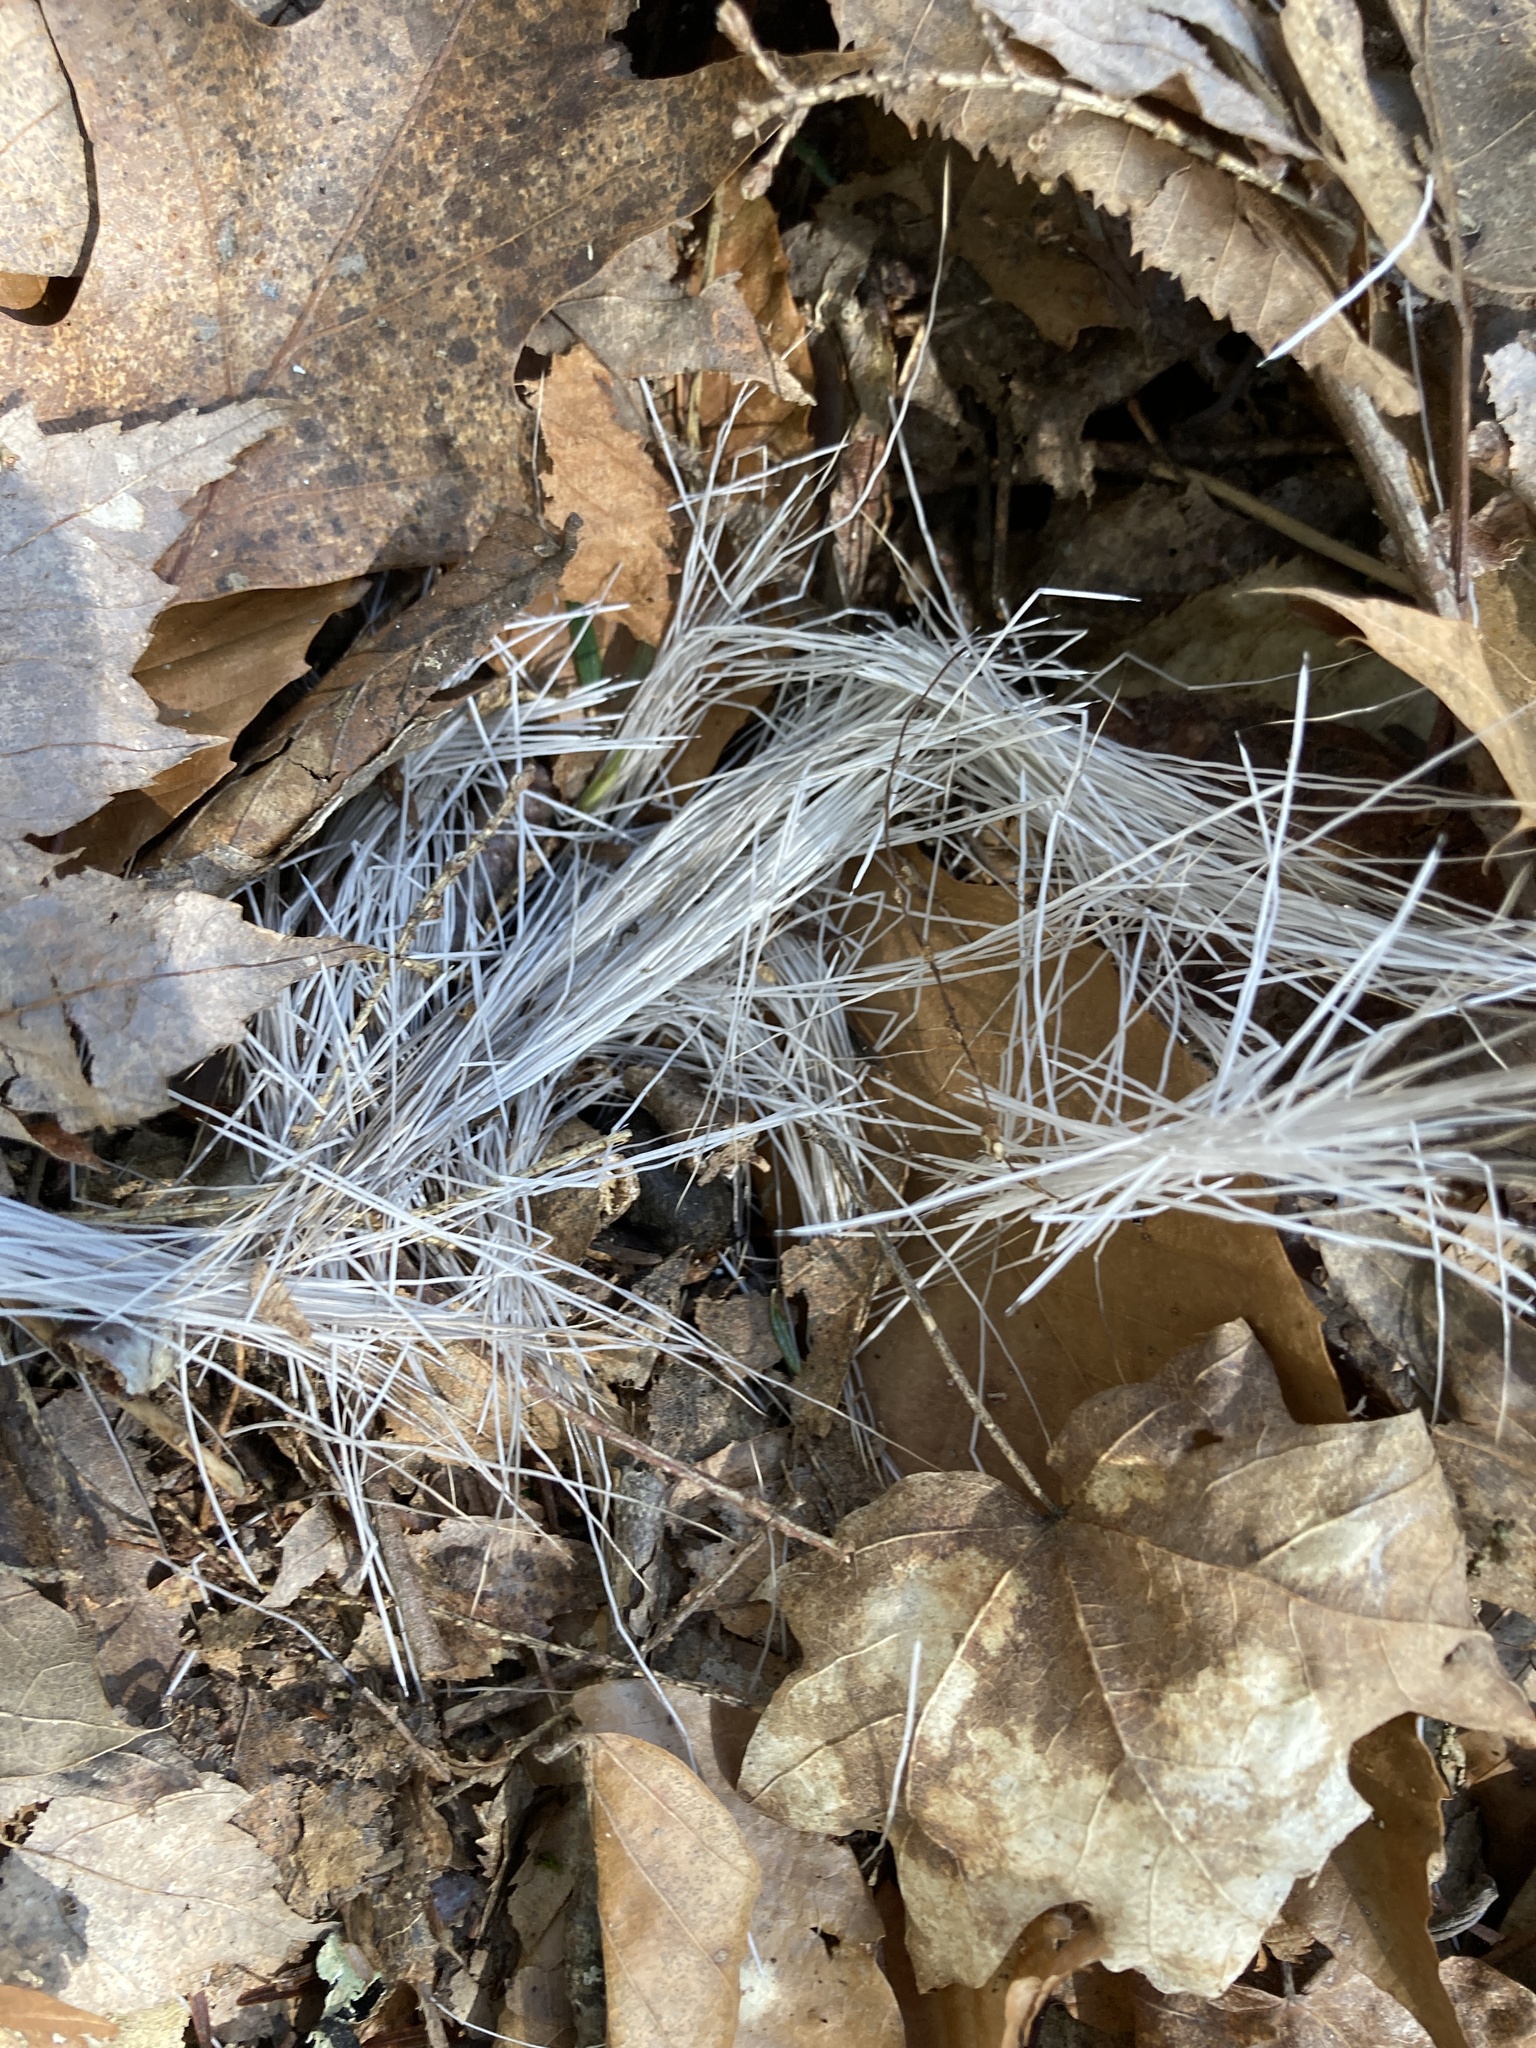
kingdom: Animalia
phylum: Chordata
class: Mammalia
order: Artiodactyla
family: Cervidae
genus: Odocoileus
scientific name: Odocoileus virginianus
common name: White-tailed deer
